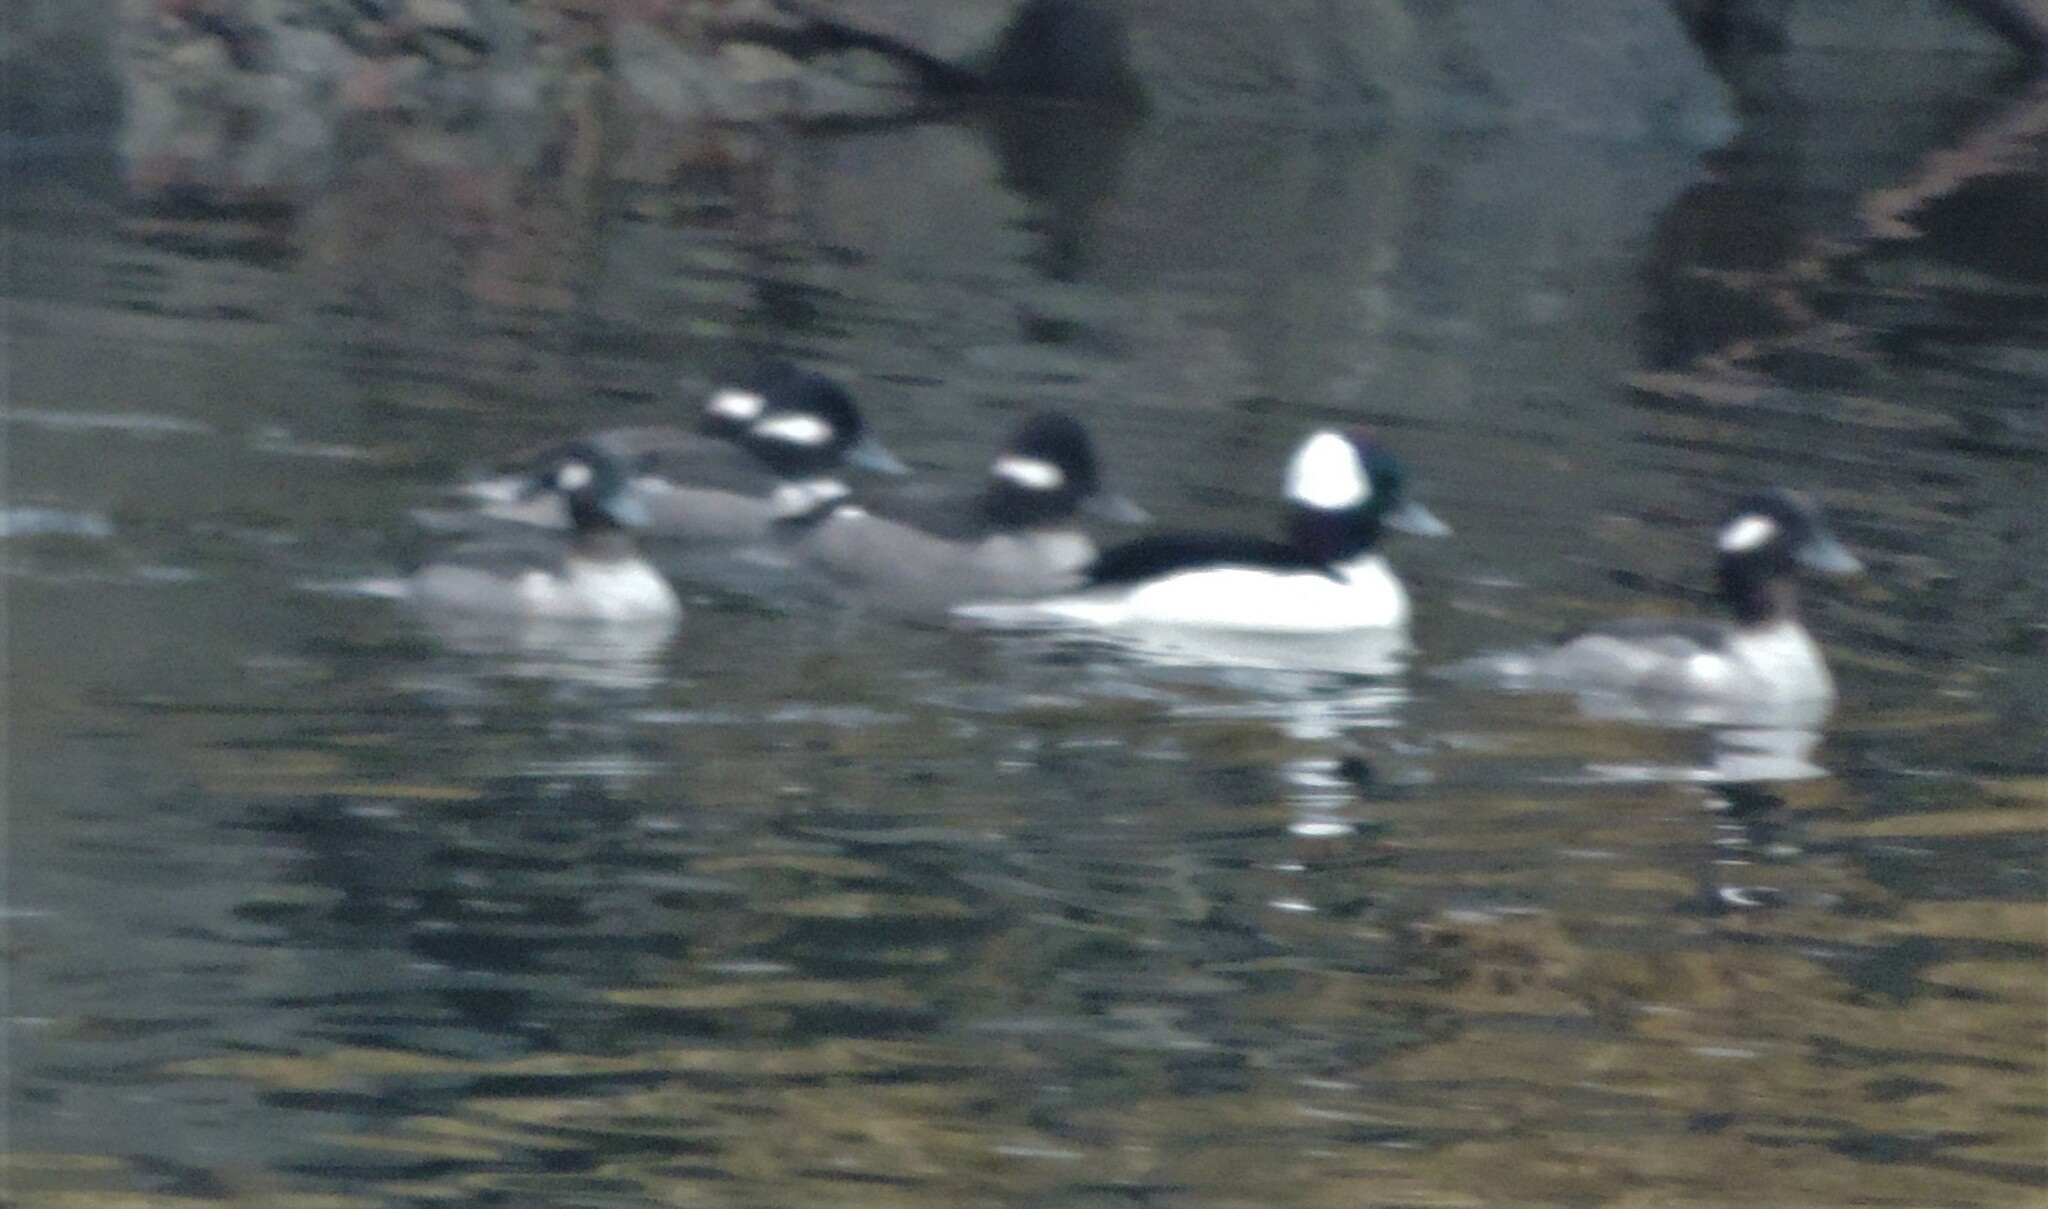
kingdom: Animalia
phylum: Chordata
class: Aves
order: Anseriformes
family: Anatidae
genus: Bucephala
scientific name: Bucephala albeola
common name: Bufflehead
